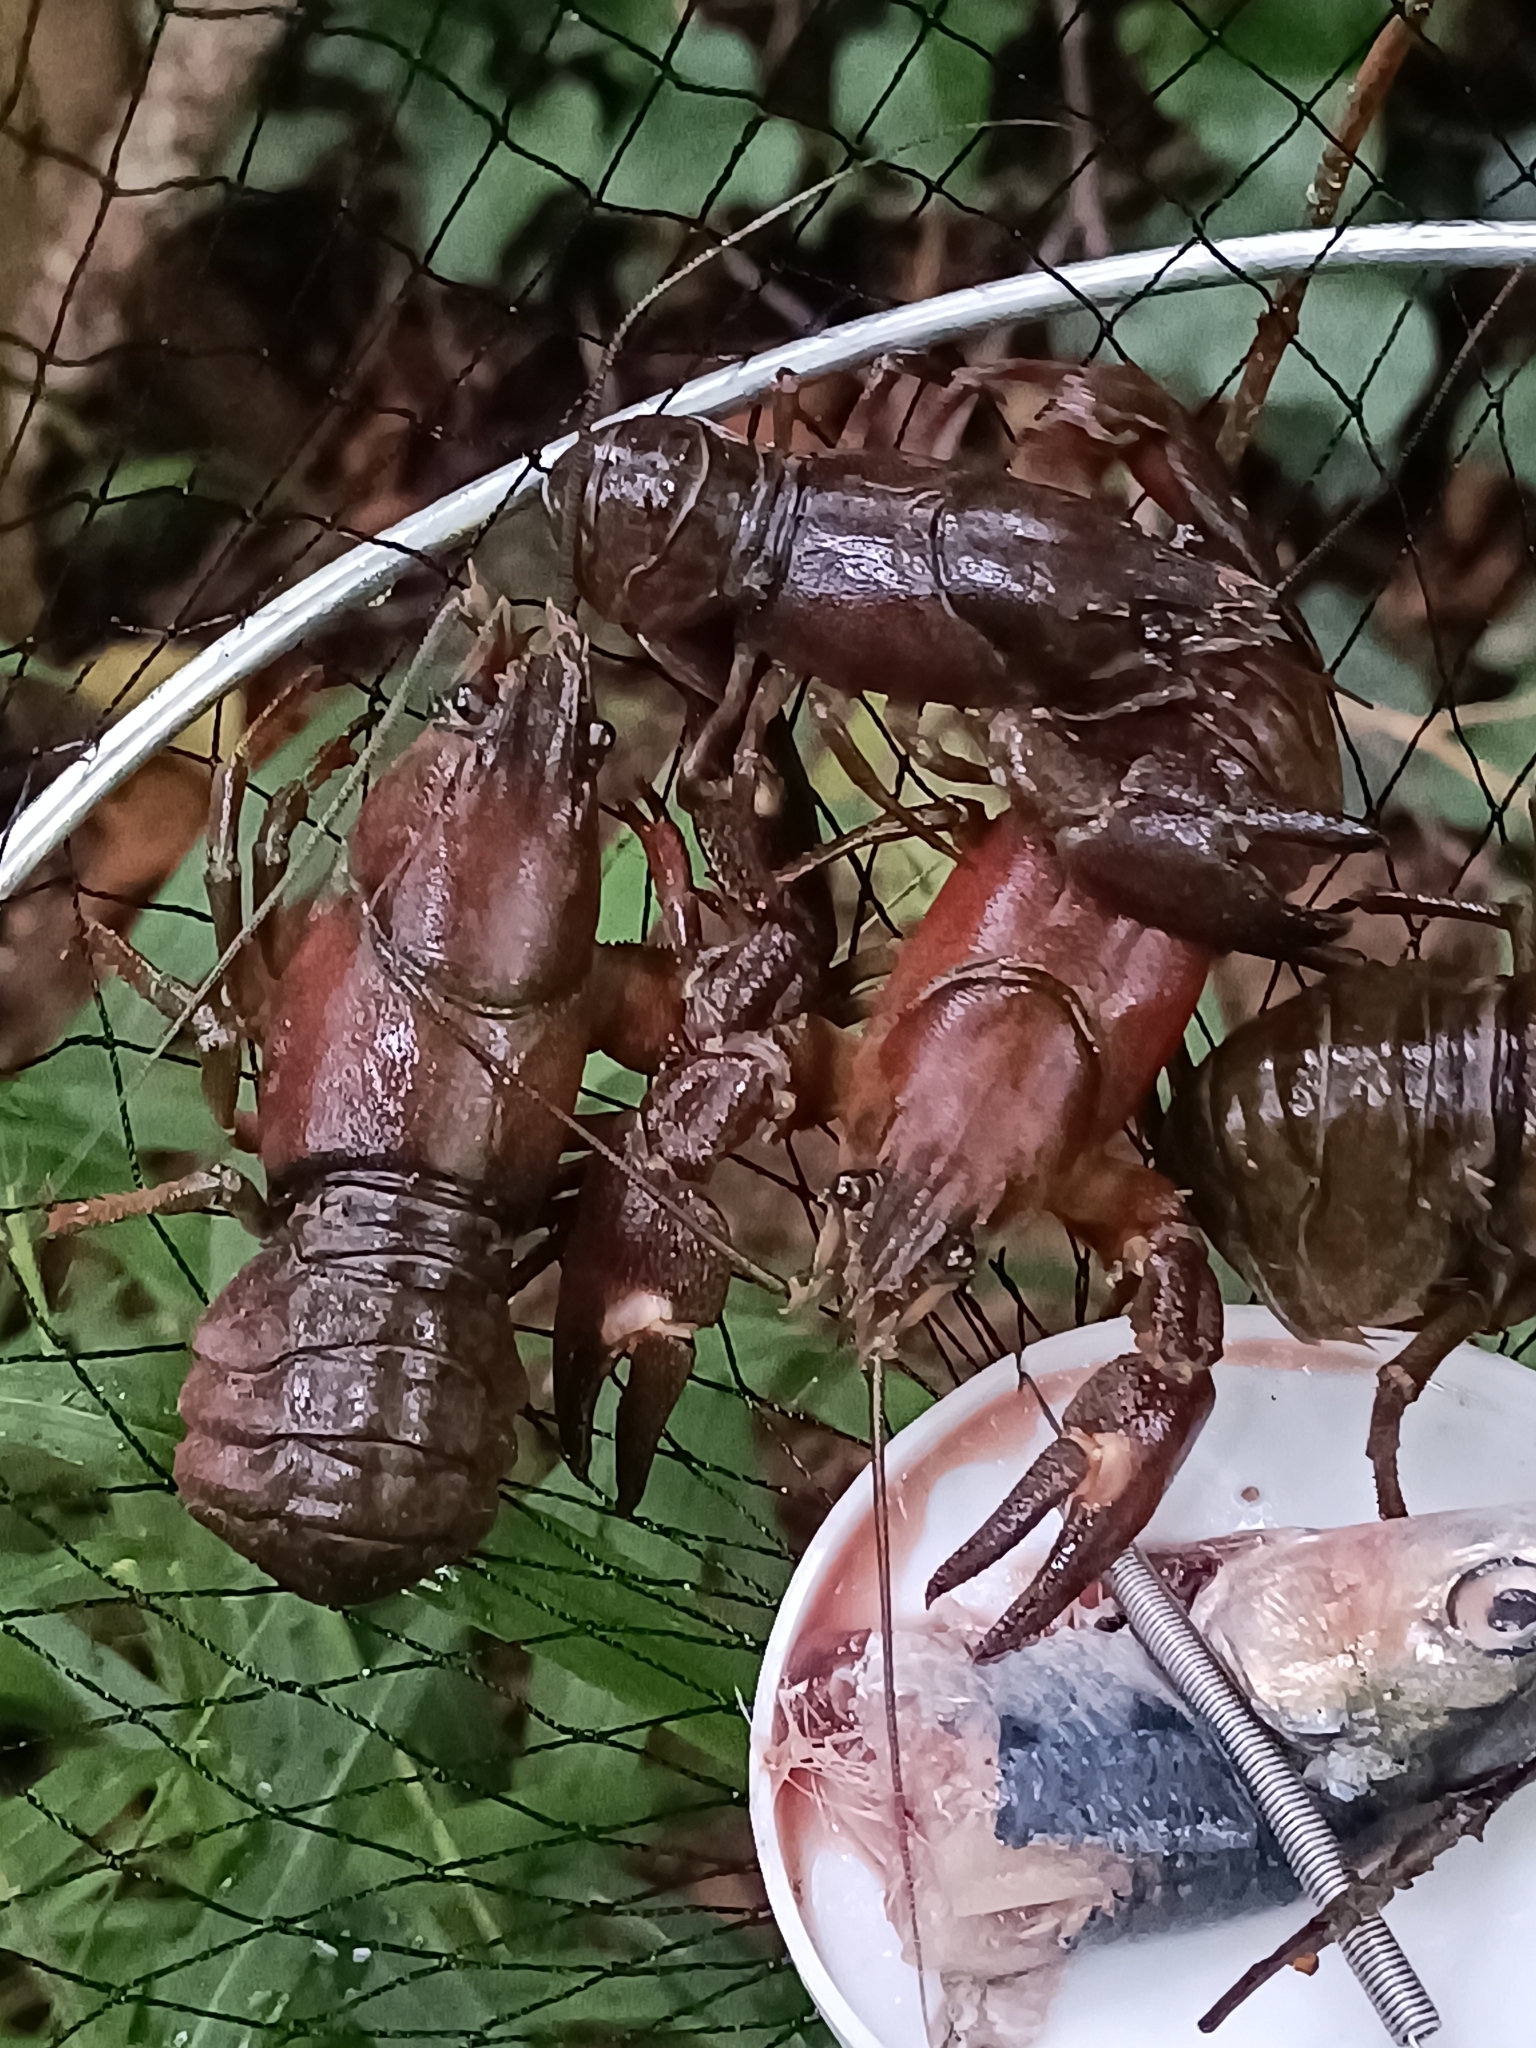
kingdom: Animalia
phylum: Arthropoda
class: Malacostraca
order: Decapoda
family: Astacidae
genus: Pacifastacus
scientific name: Pacifastacus leniusculus
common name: Signal crayfish
